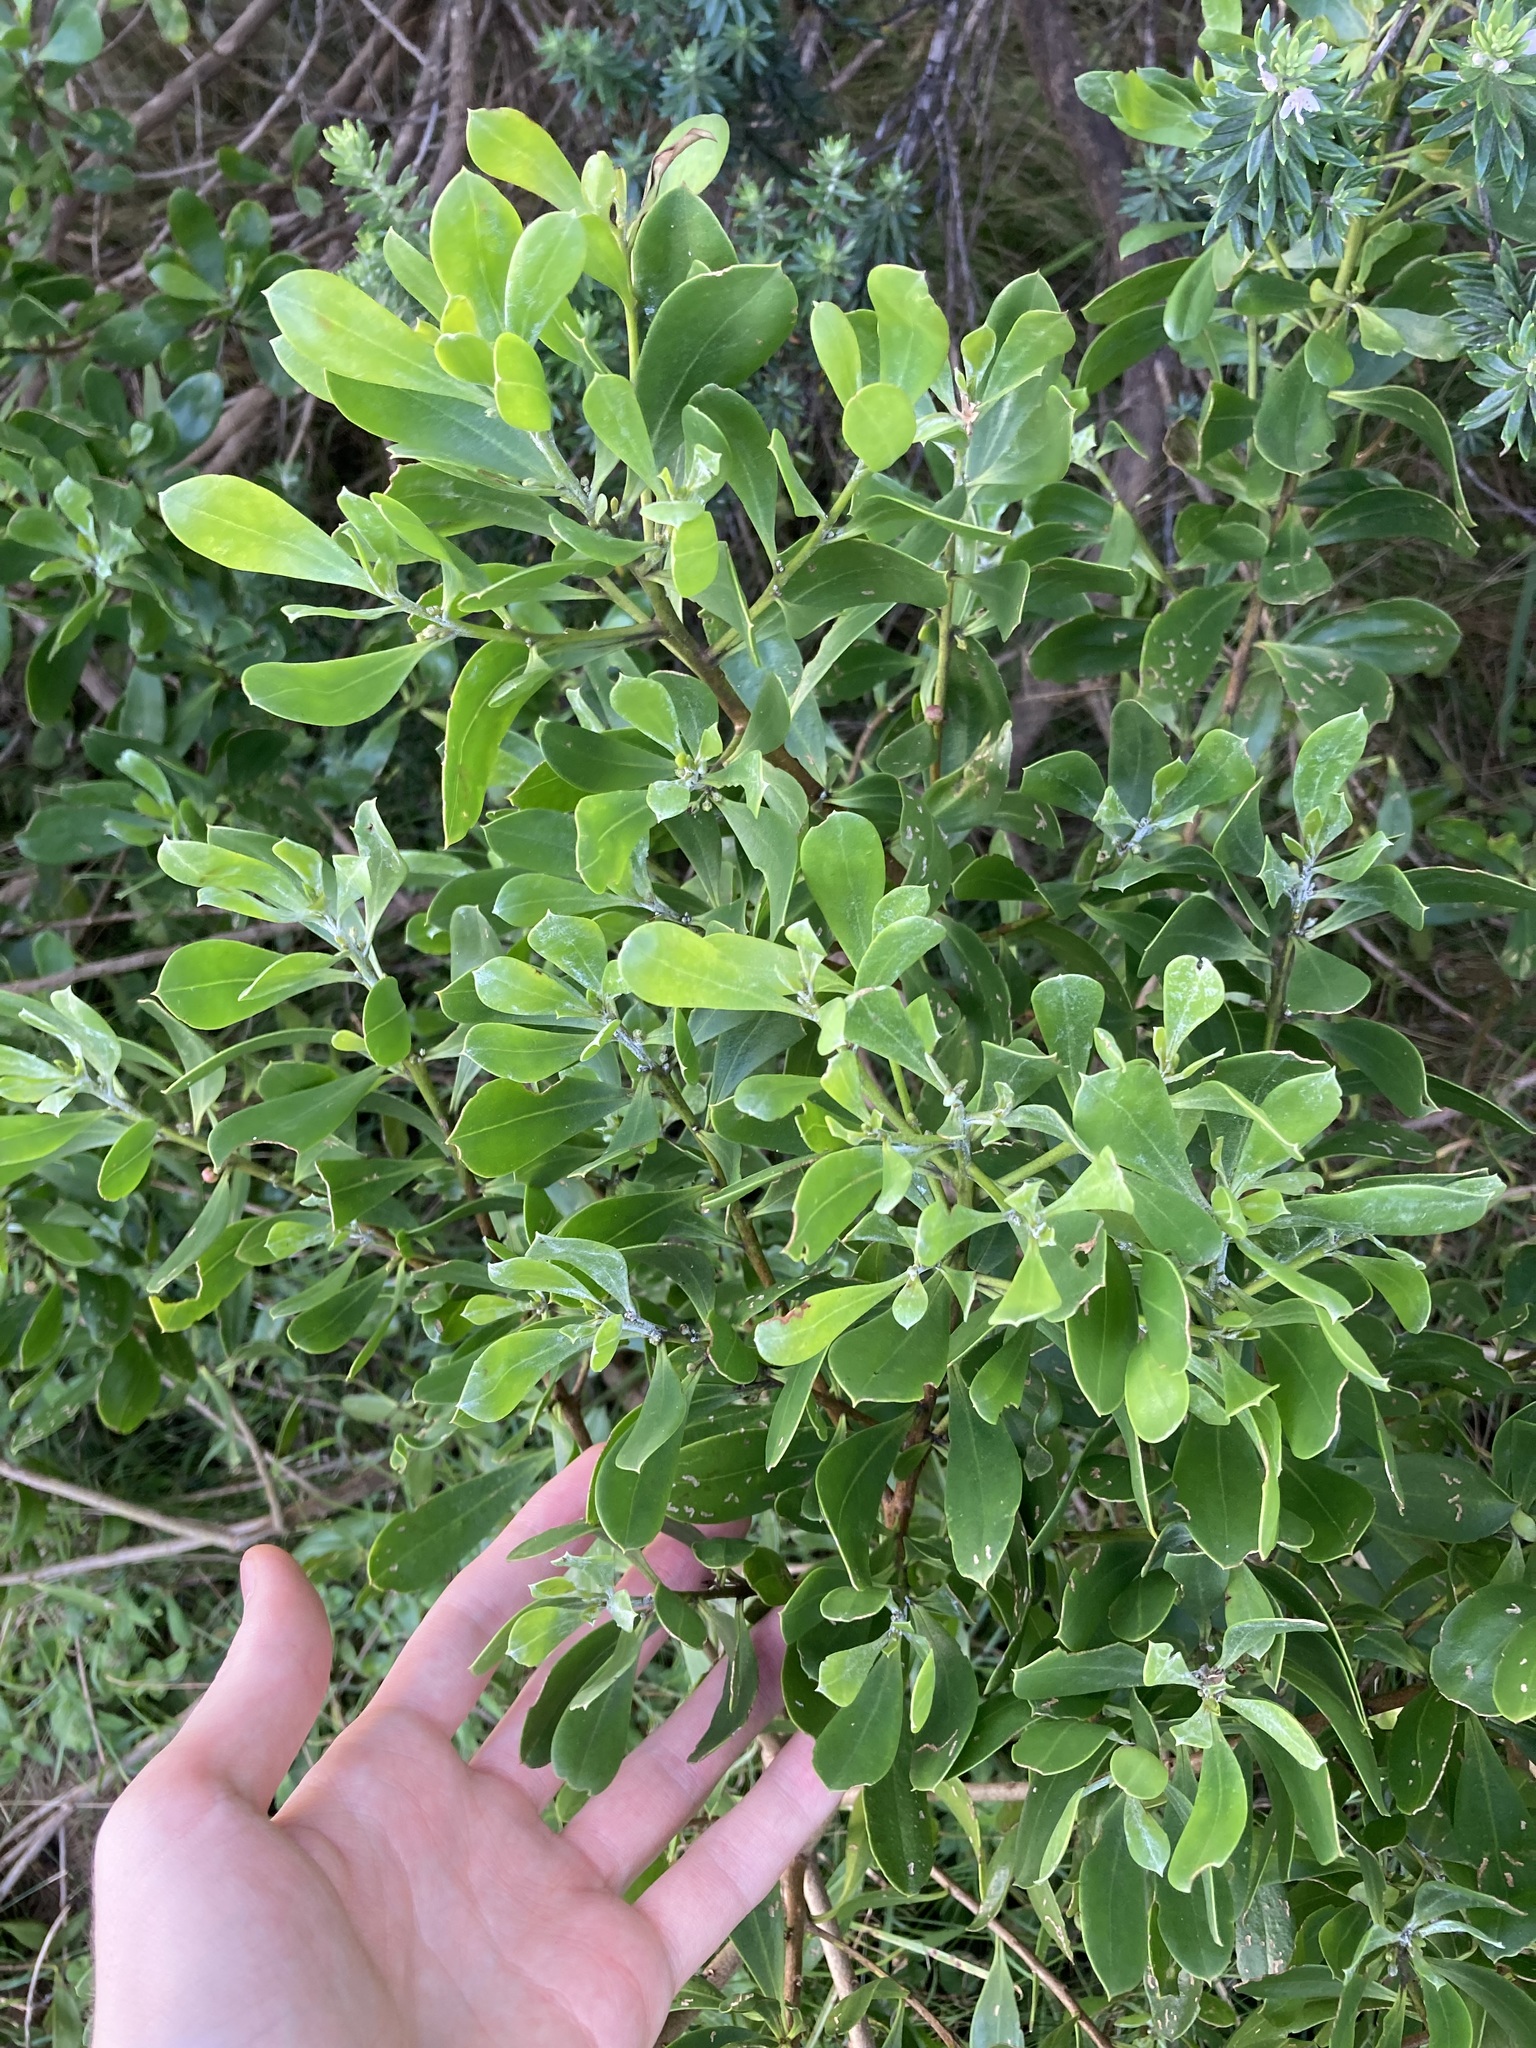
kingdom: Plantae
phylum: Tracheophyta
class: Magnoliopsida
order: Asterales
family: Asteraceae
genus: Osteospermum
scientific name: Osteospermum moniliferum
